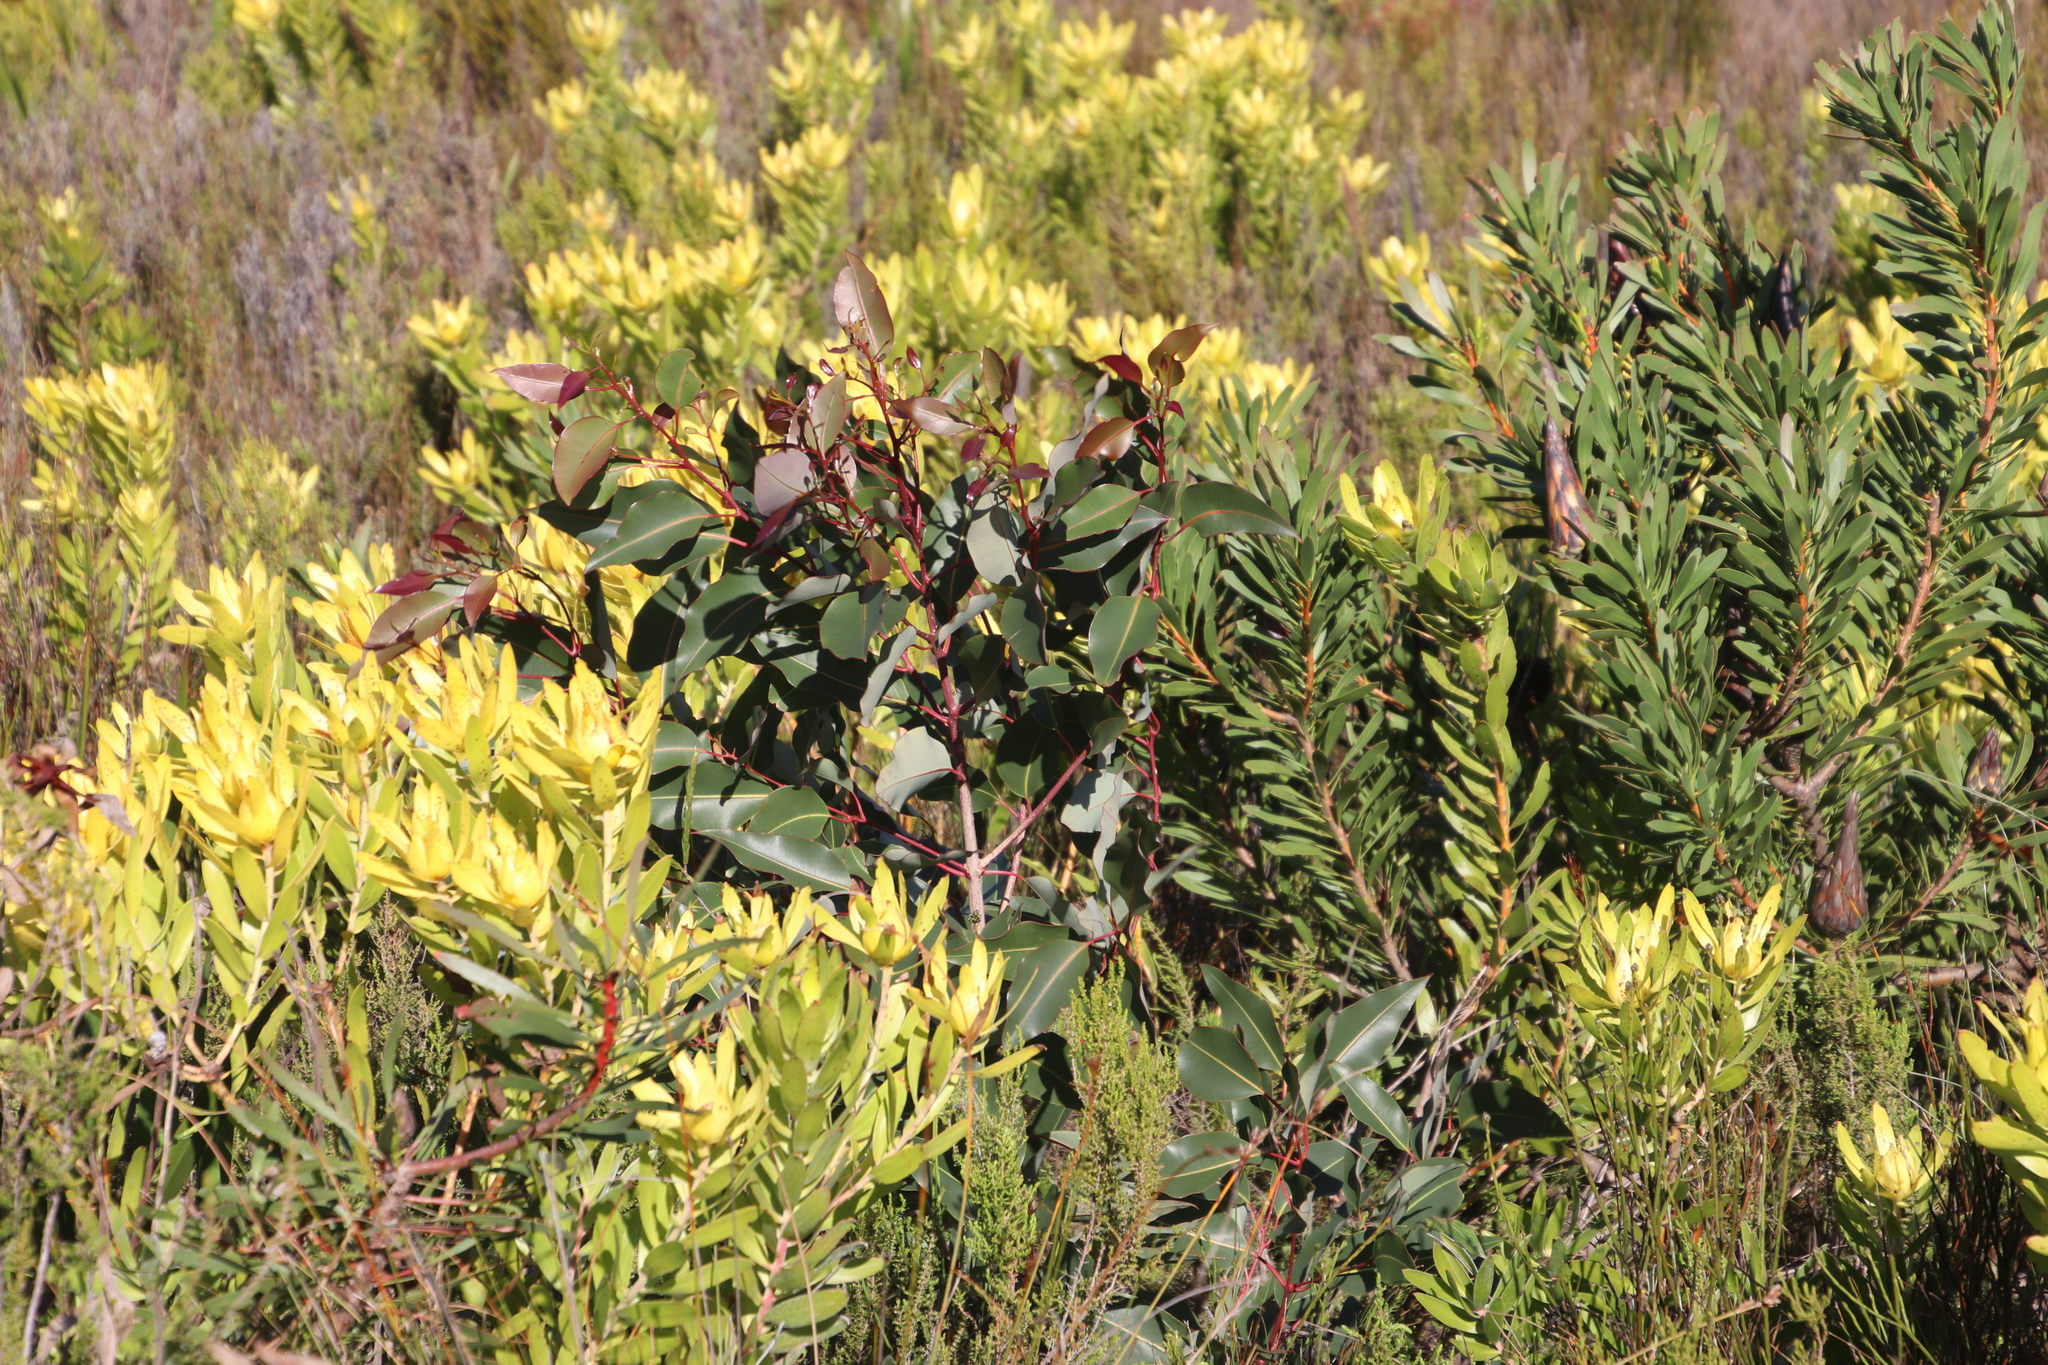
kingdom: Plantae
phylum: Tracheophyta
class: Magnoliopsida
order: Myrtales
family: Myrtaceae
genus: Corymbia
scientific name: Corymbia ficifolia
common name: Redflower gum
